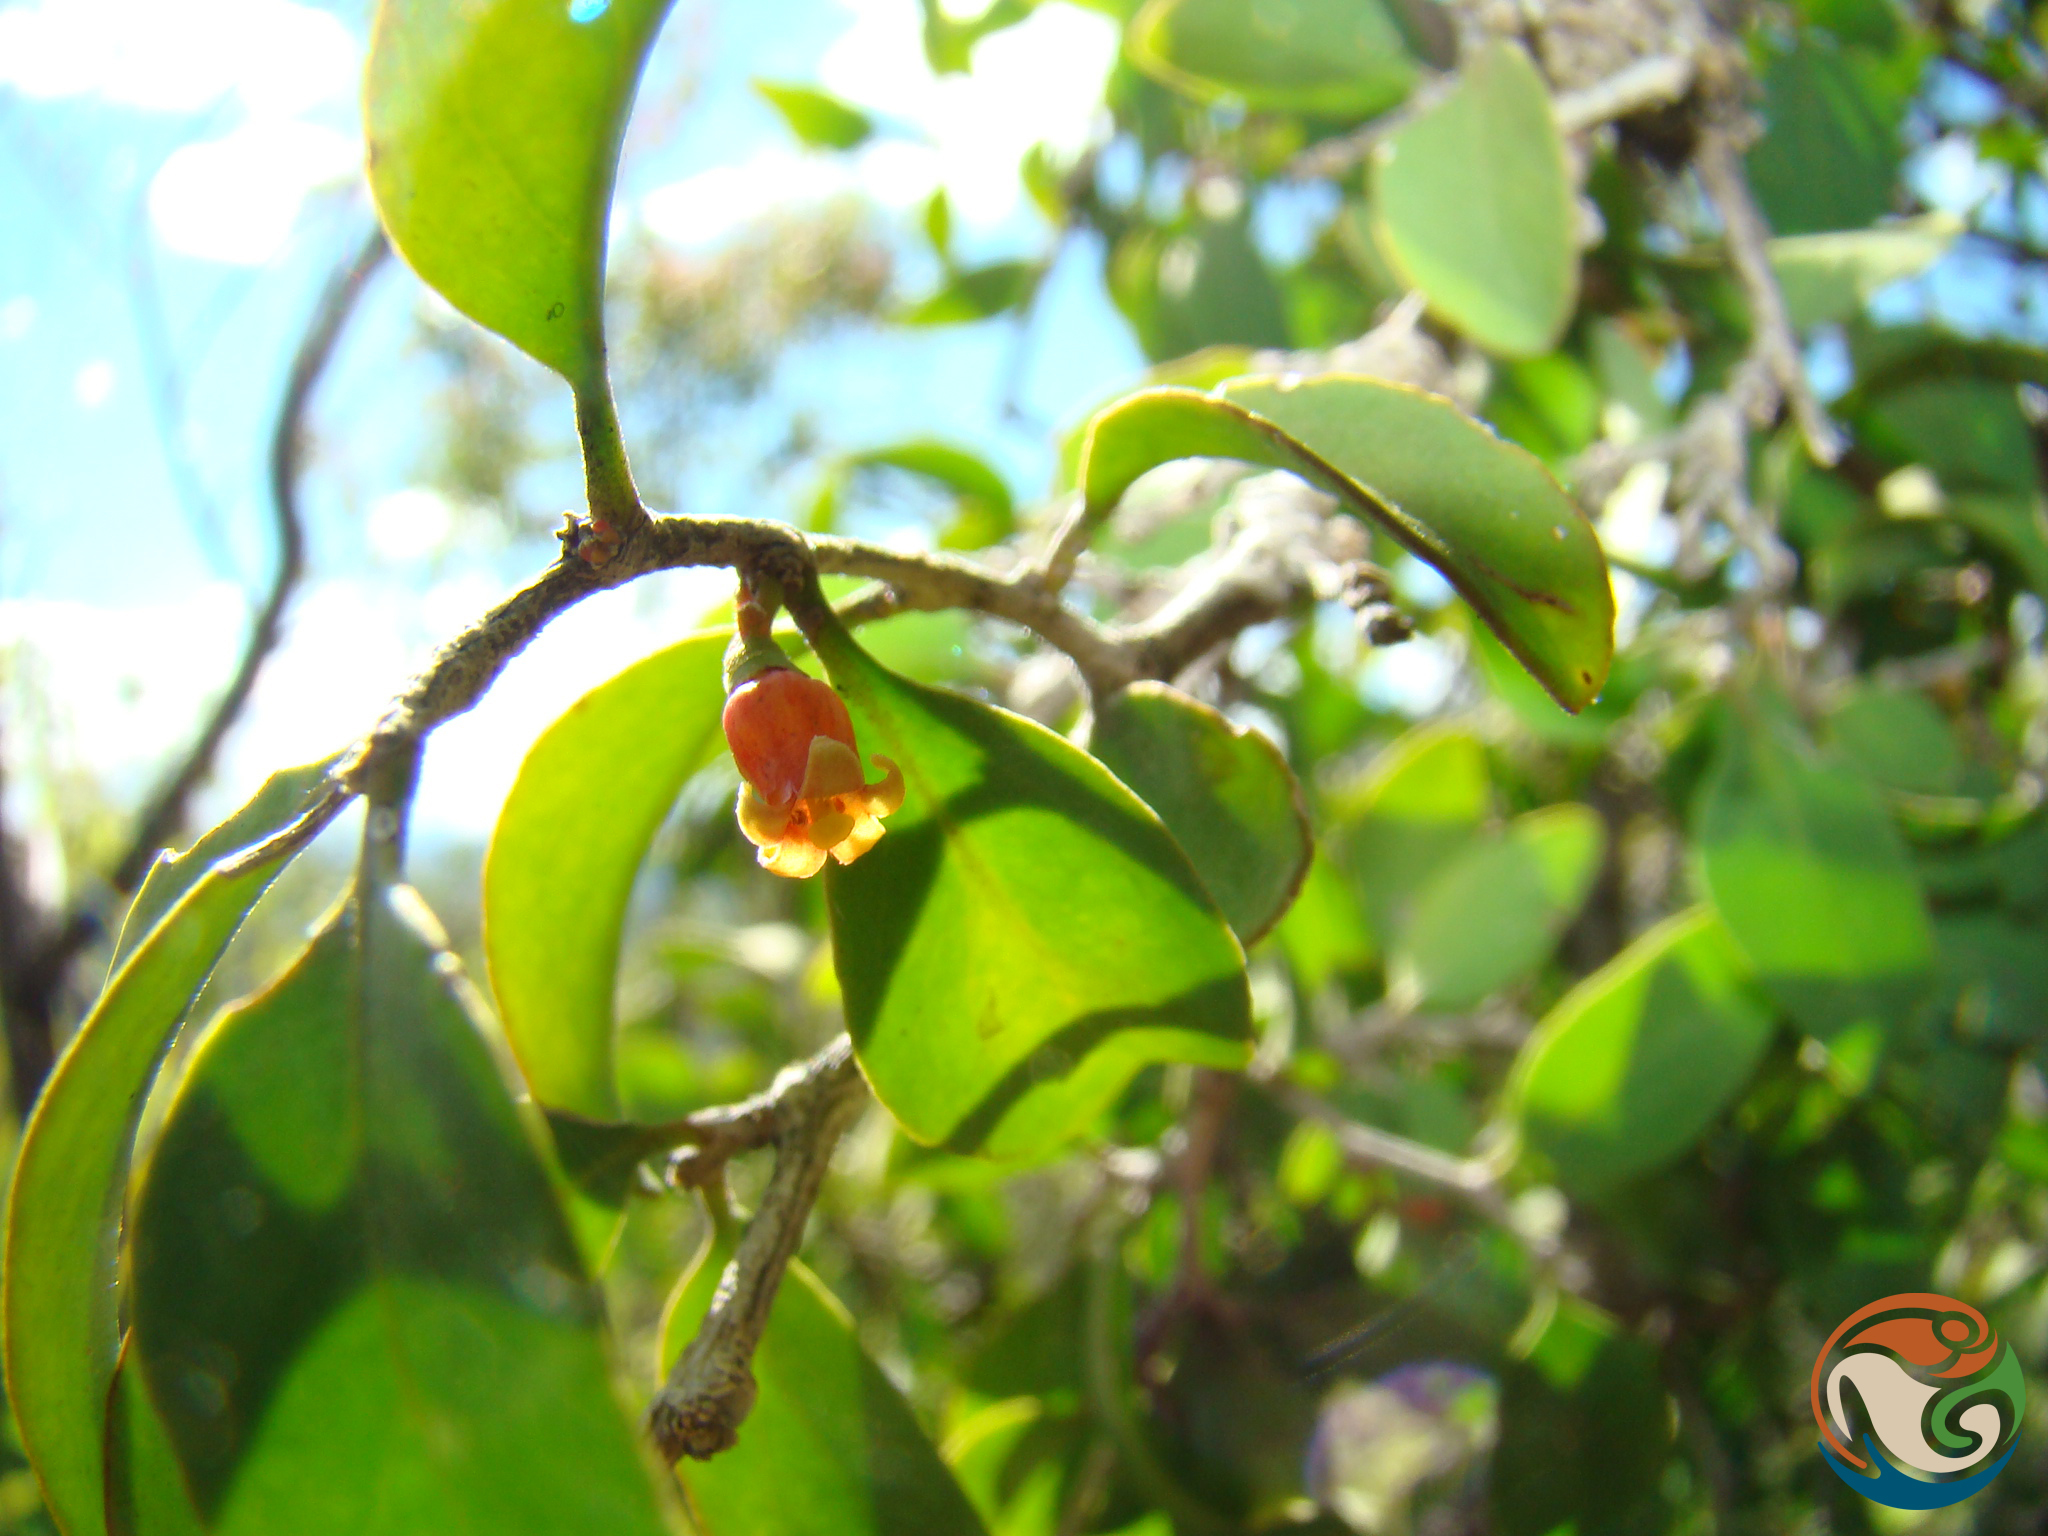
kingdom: Plantae
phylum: Tracheophyta
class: Magnoliopsida
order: Santalales
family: Schoepfiaceae
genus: Schoepfia
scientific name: Schoepfia schreberi
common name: Gulf graytwig
